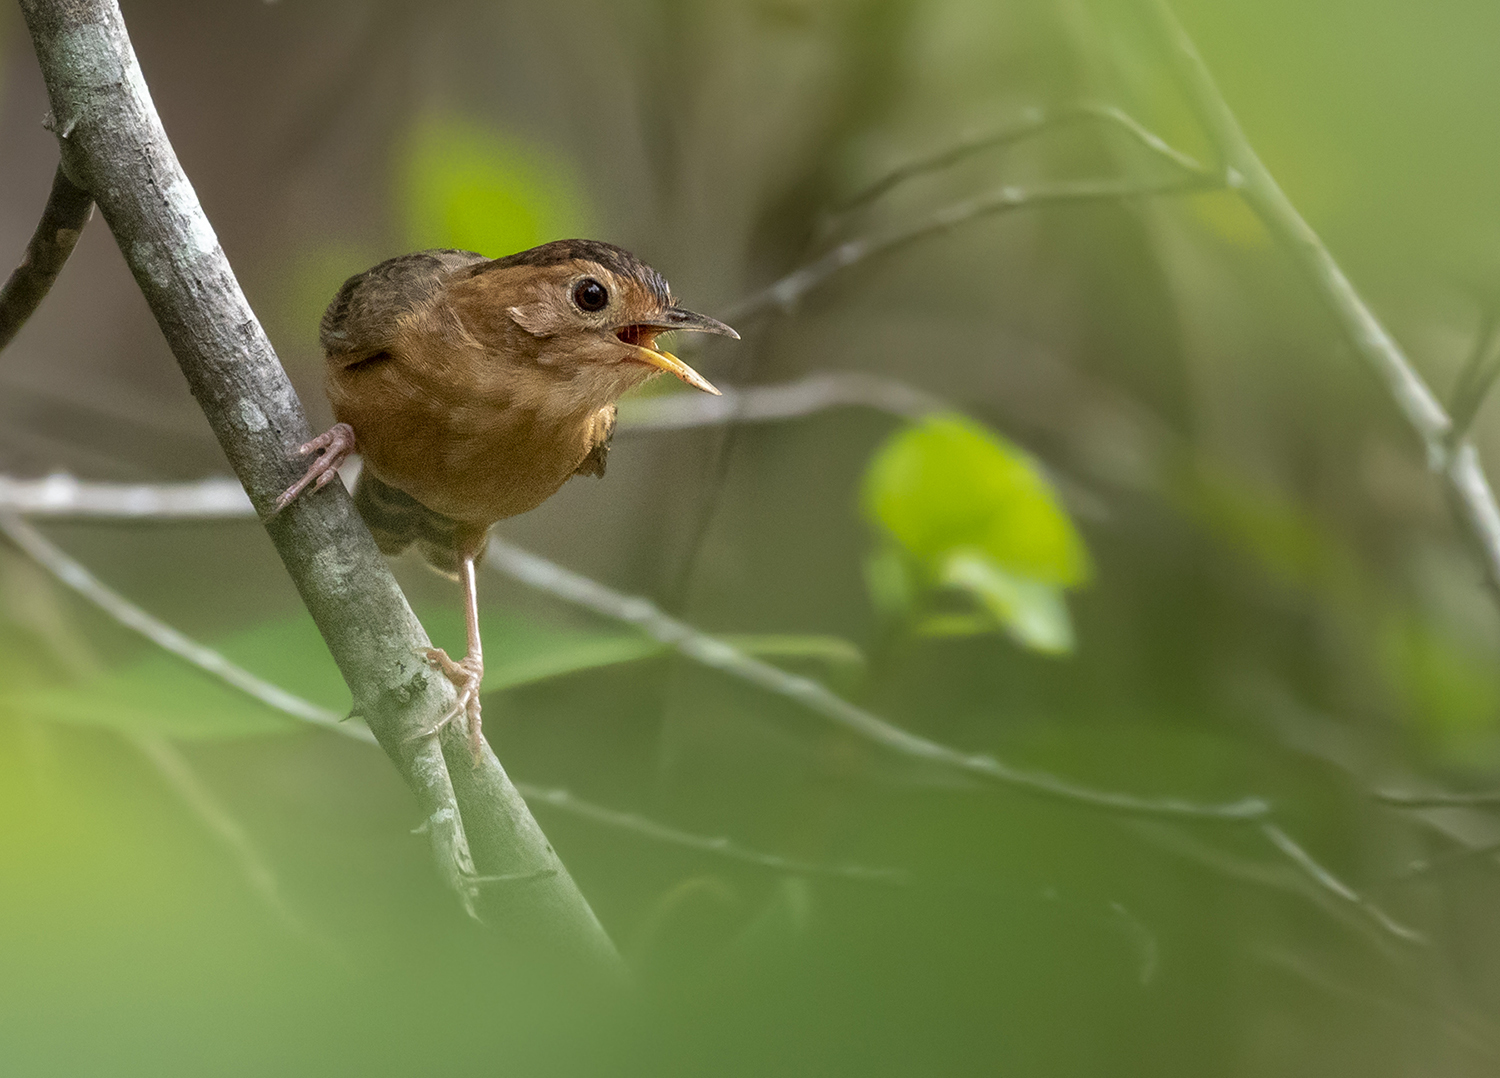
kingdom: Animalia
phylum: Chordata
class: Aves
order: Passeriformes
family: Pellorneidae
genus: Pellorneum
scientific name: Pellorneum fuscocapillus
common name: Brown-capped babbler
